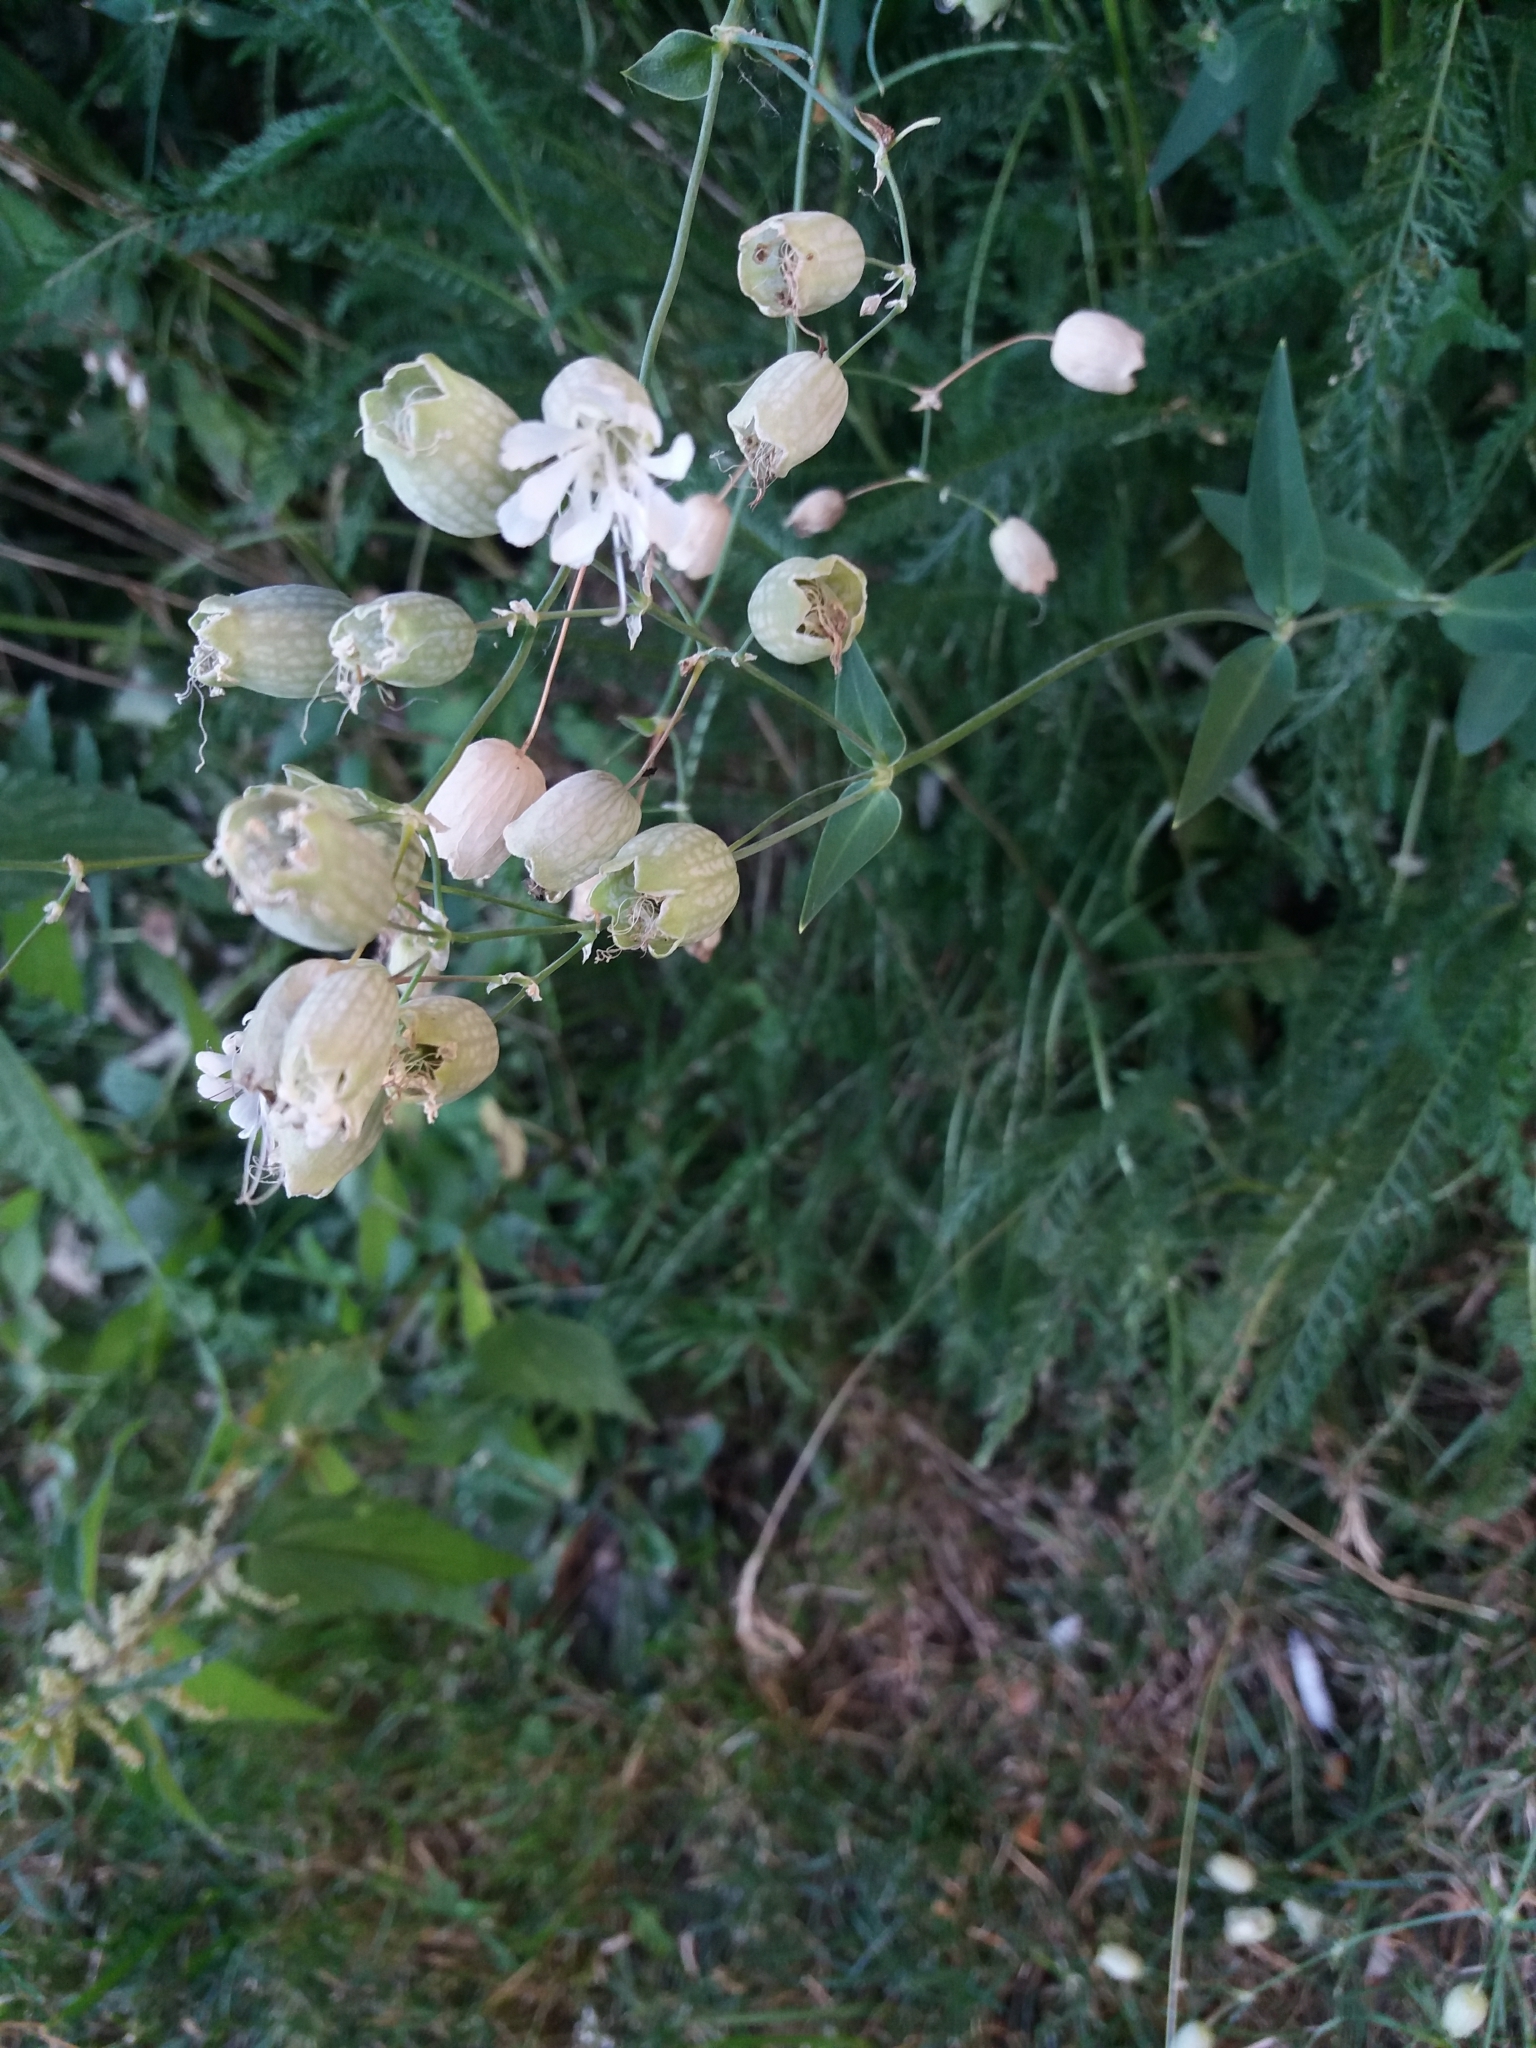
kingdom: Plantae
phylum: Tracheophyta
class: Magnoliopsida
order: Caryophyllales
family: Caryophyllaceae
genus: Silene
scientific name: Silene vulgaris
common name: Bladder campion
